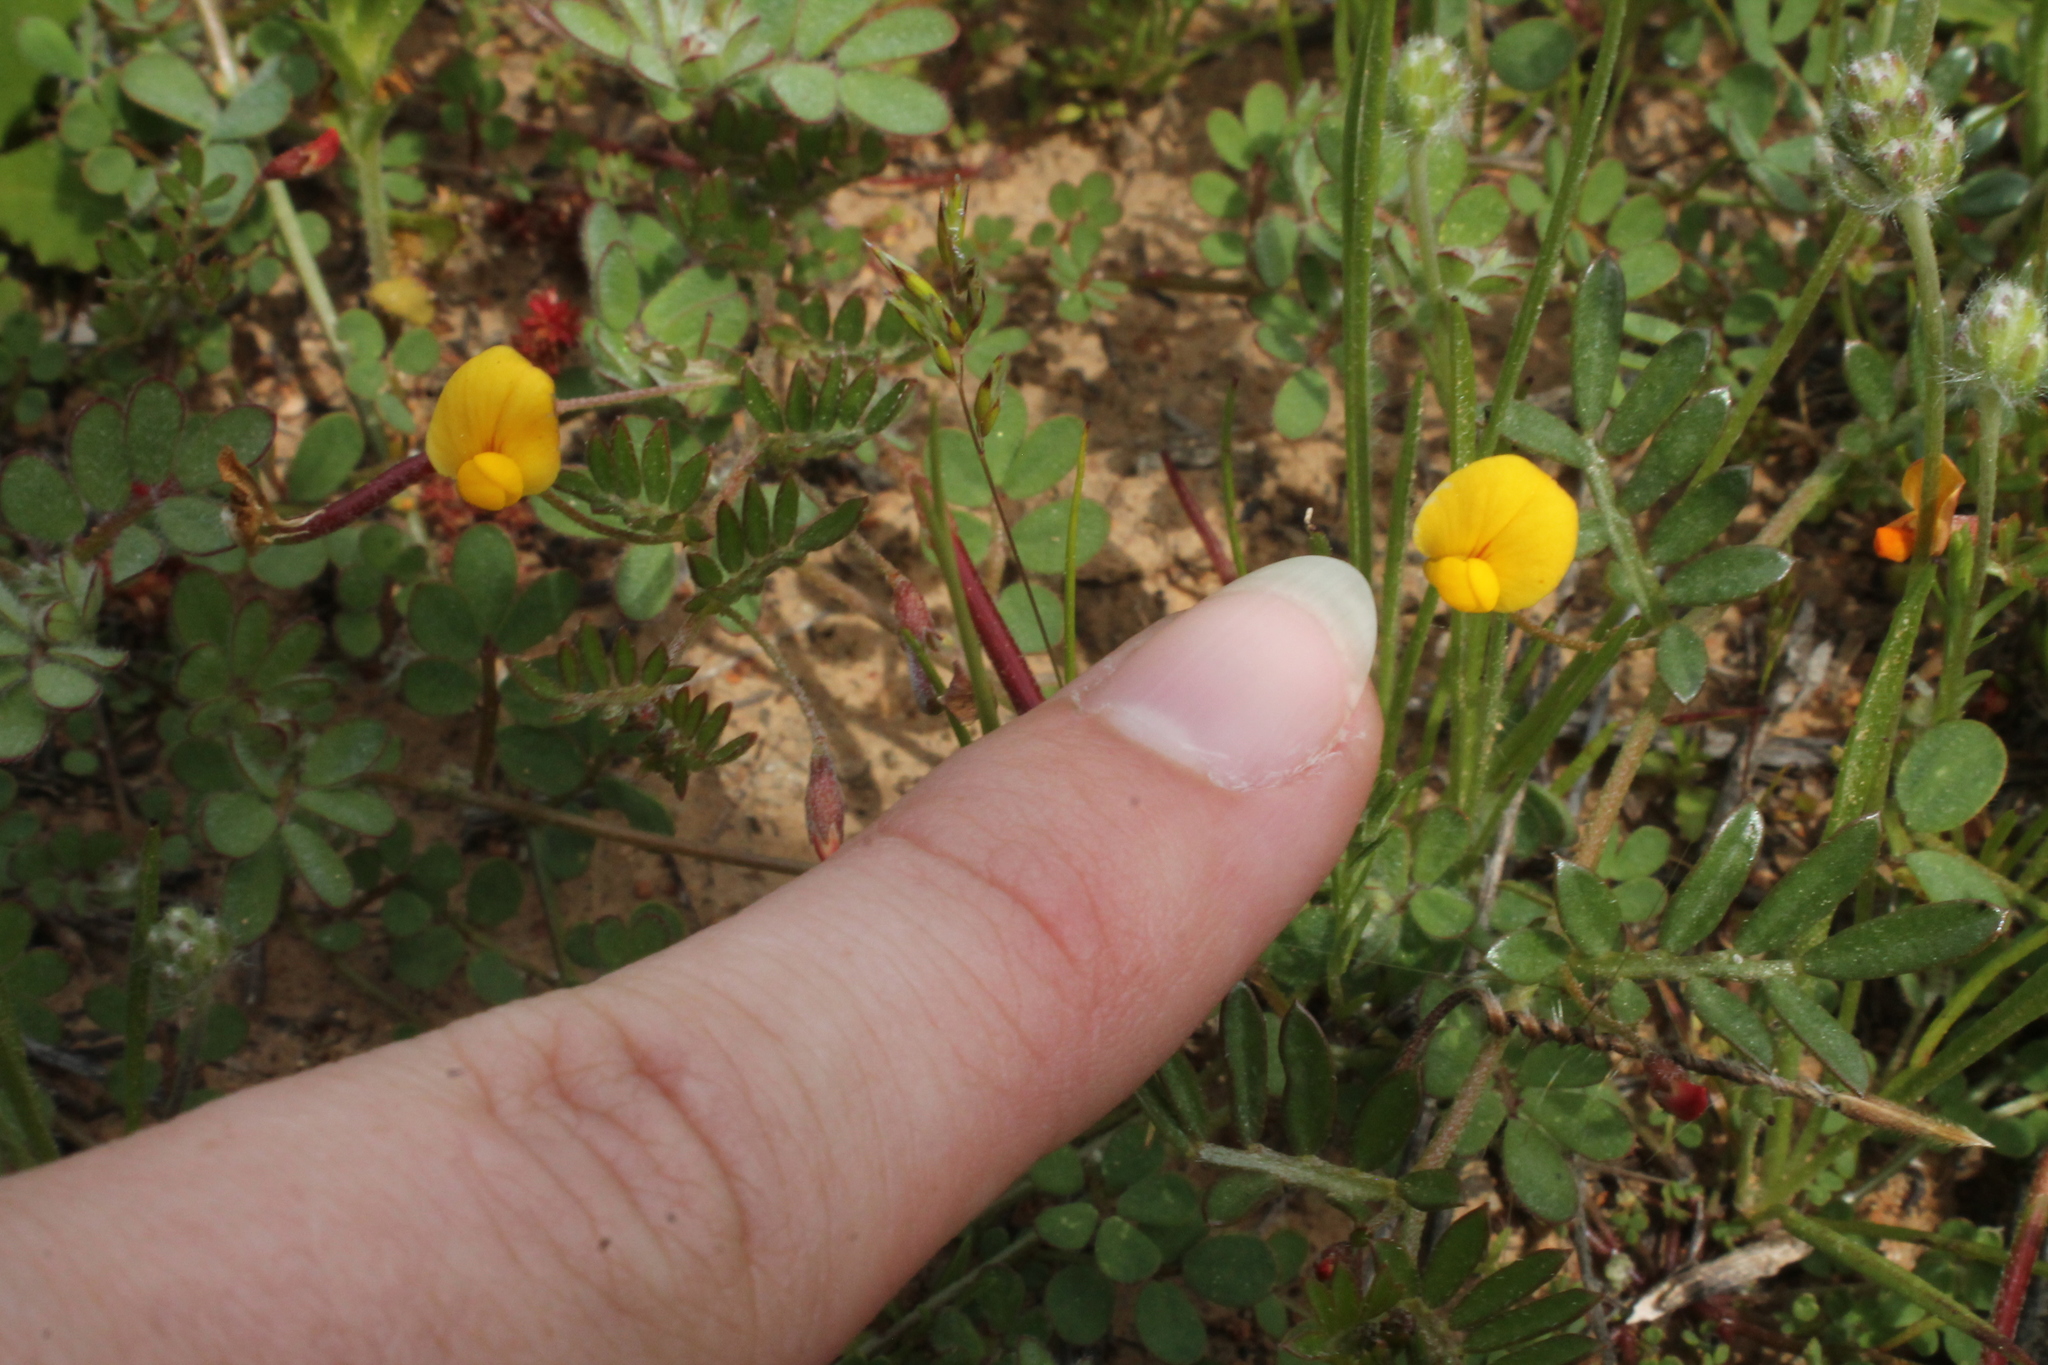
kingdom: Plantae
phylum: Tracheophyta
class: Magnoliopsida
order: Fabales
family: Fabaceae
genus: Acmispon
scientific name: Acmispon strigosus
